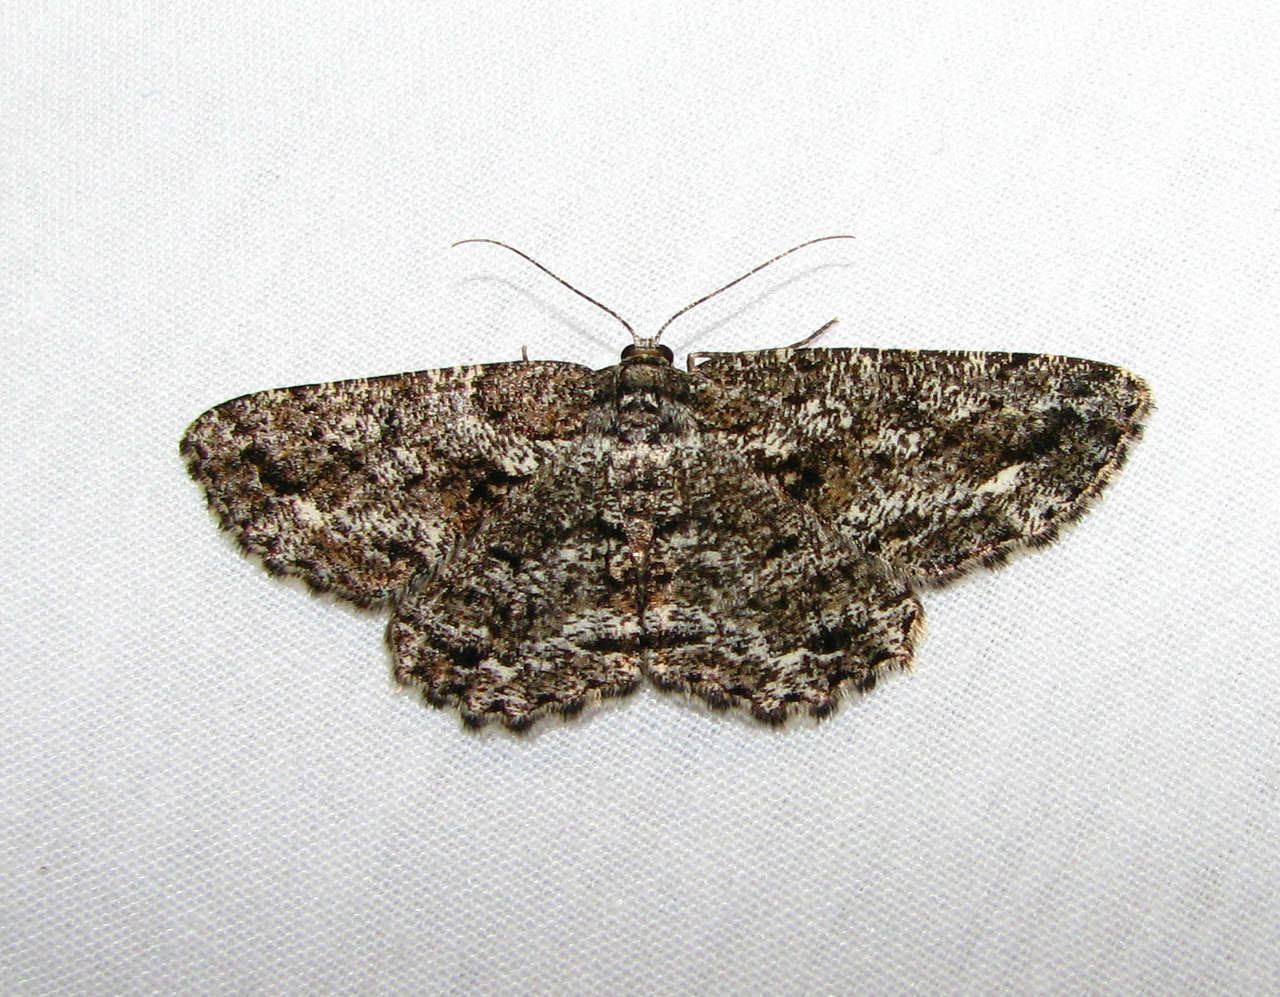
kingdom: Animalia
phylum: Arthropoda
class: Insecta
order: Lepidoptera
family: Geometridae
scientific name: Geometridae
